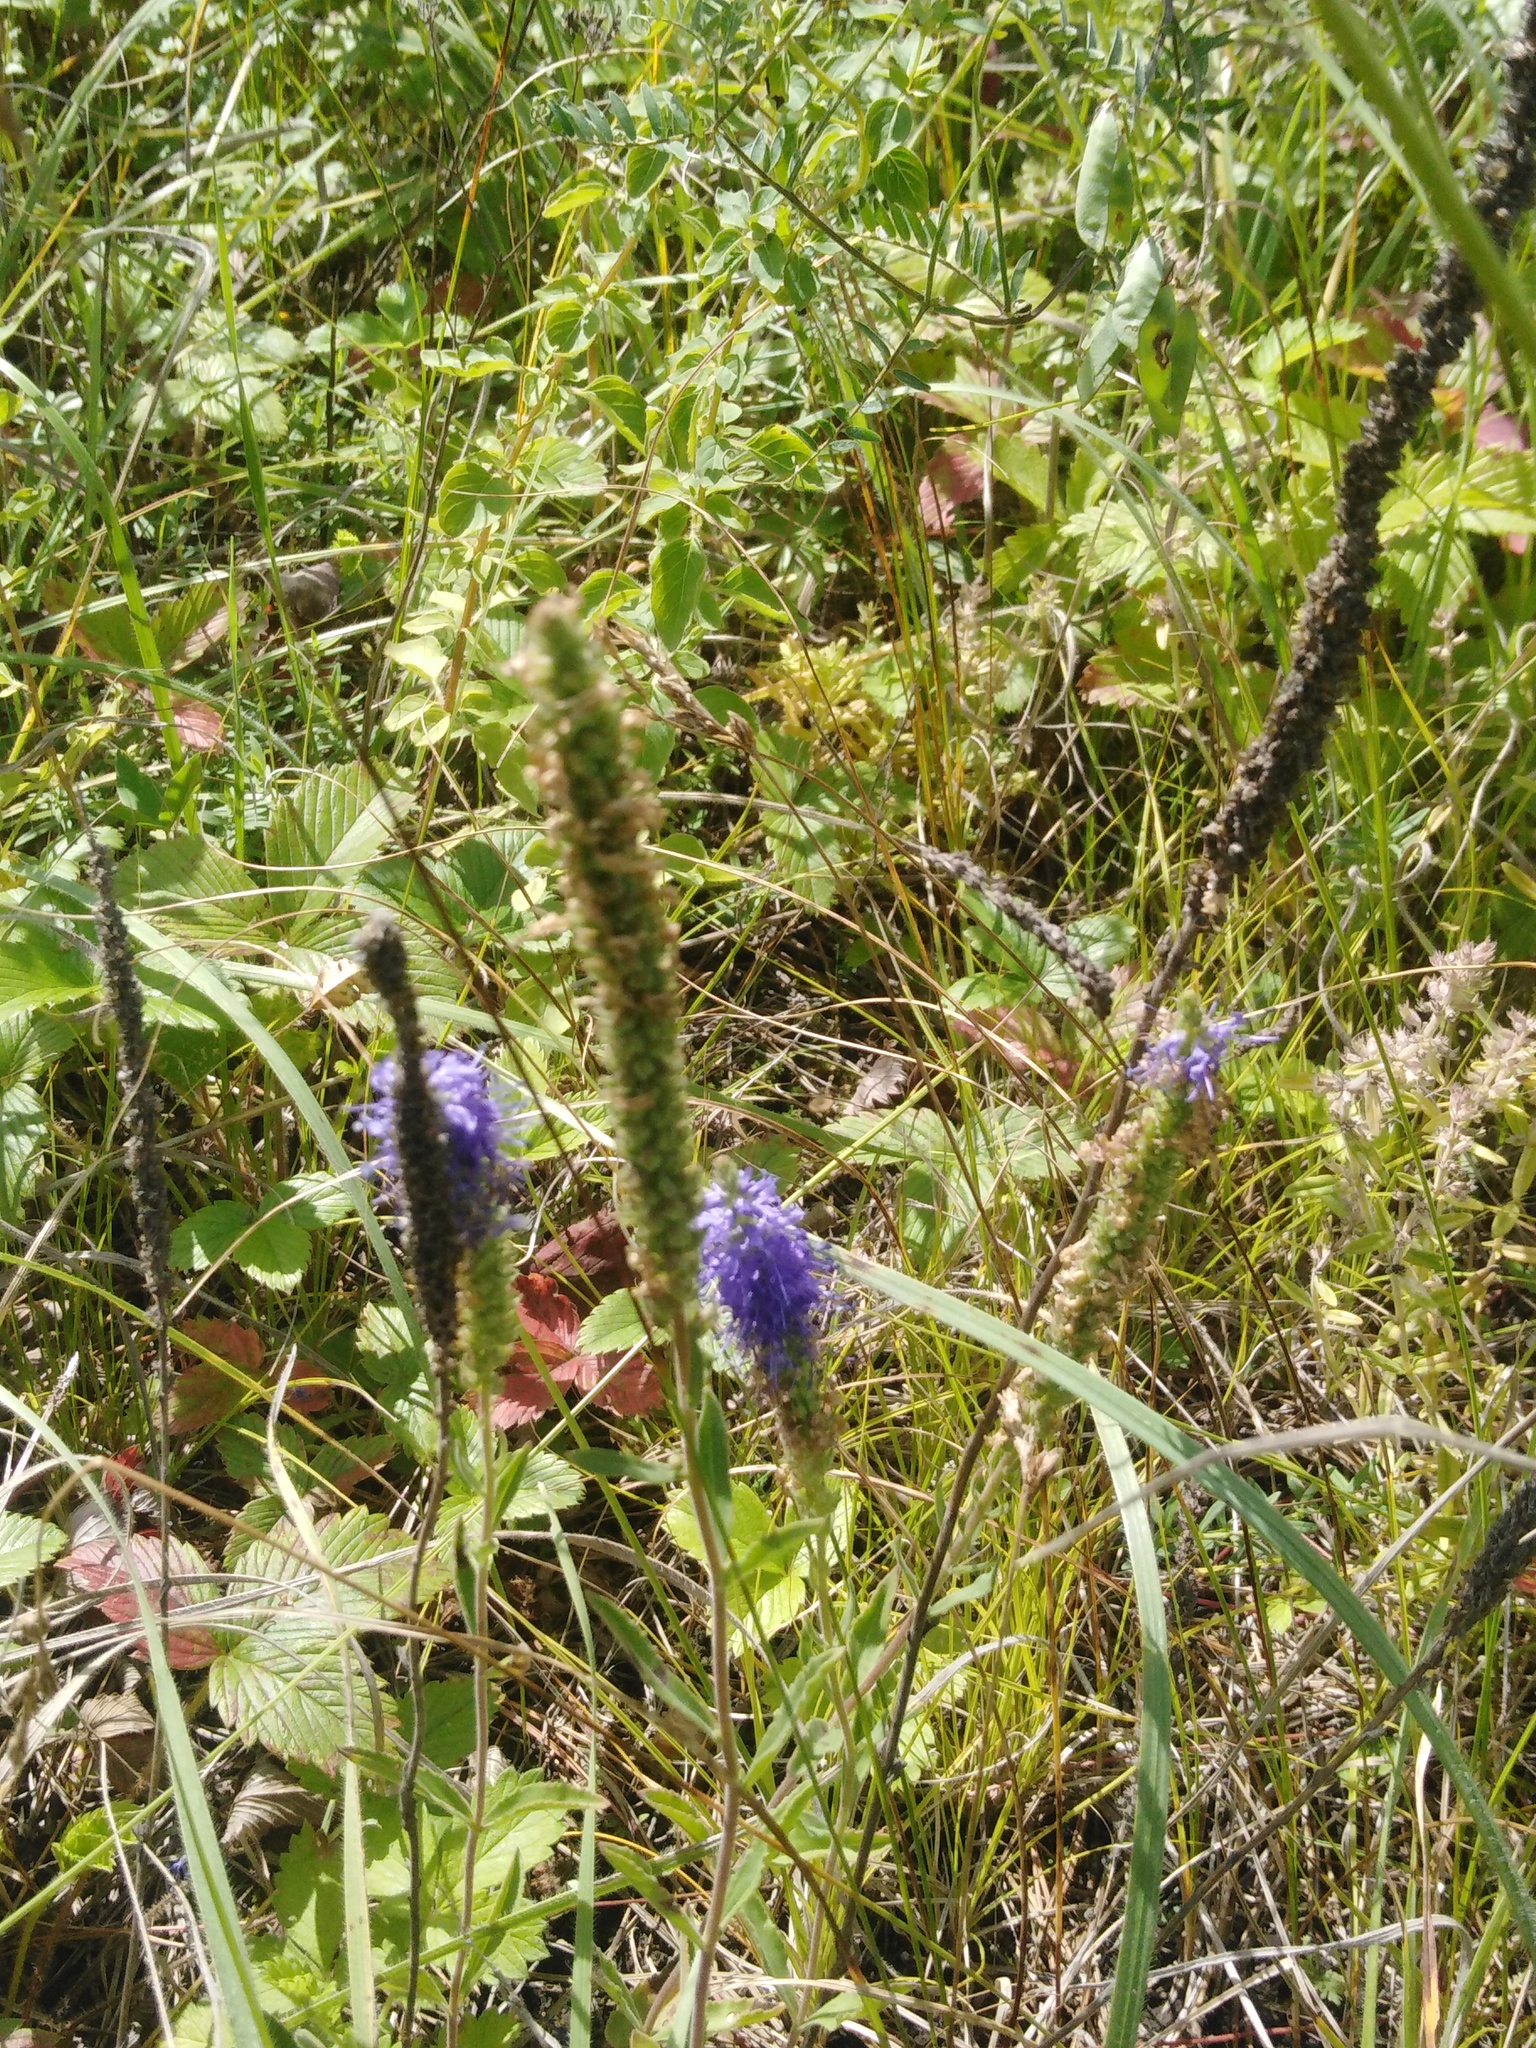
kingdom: Plantae
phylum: Tracheophyta
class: Magnoliopsida
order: Lamiales
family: Plantaginaceae
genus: Veronica
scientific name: Veronica spicata
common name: Spiked speedwell
